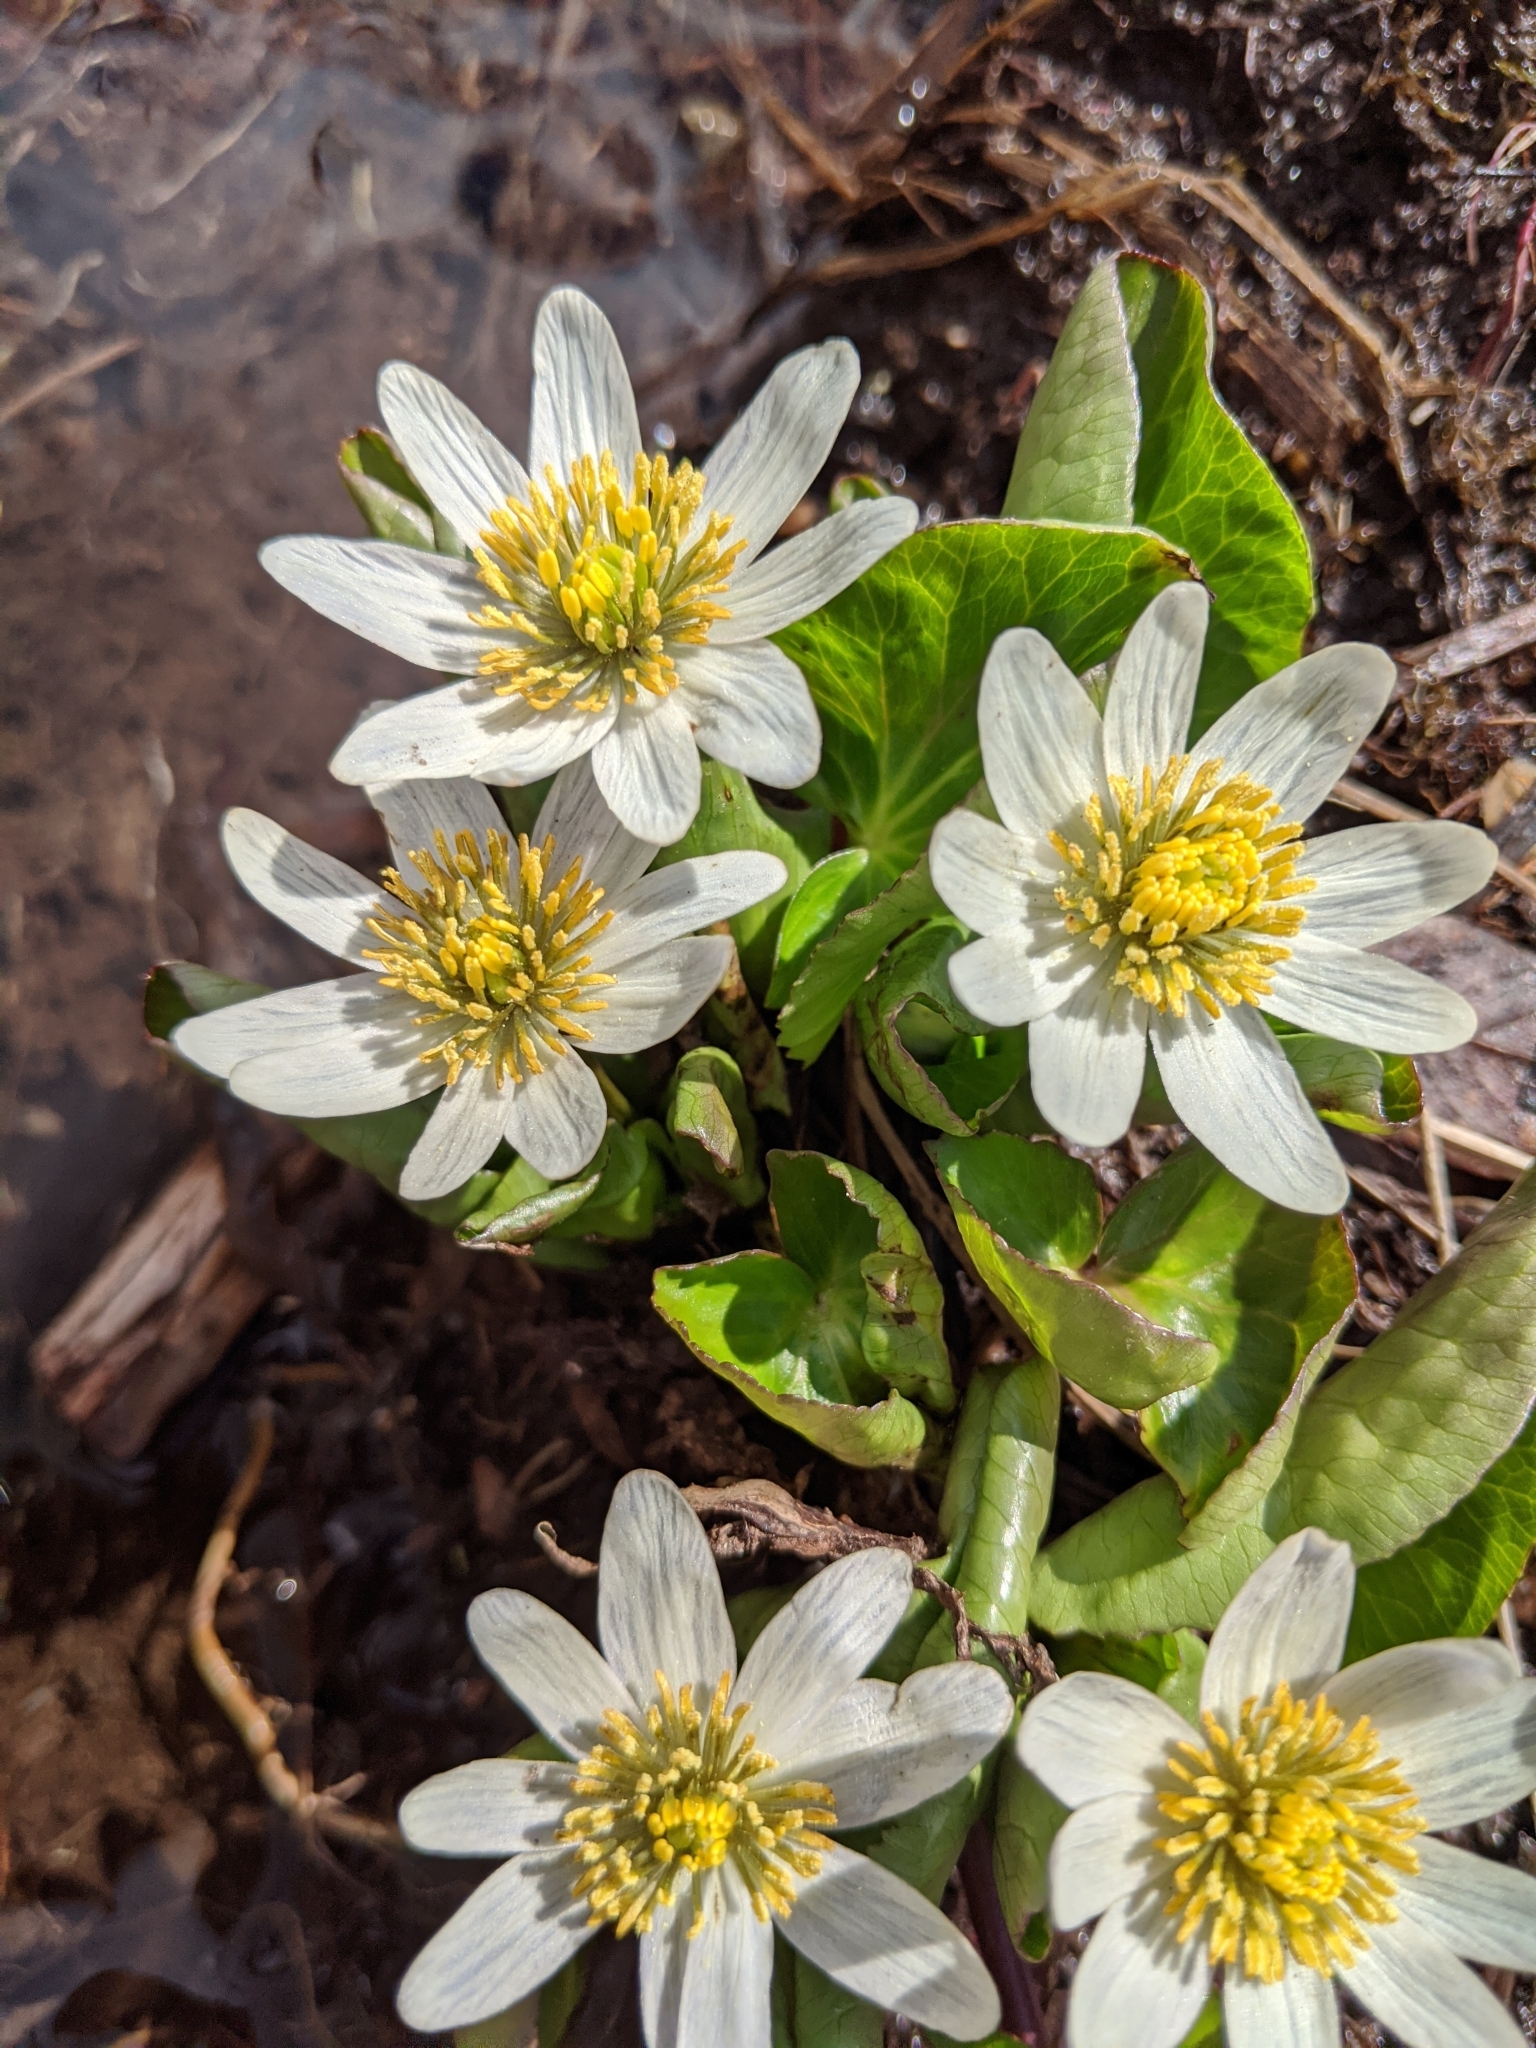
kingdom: Plantae
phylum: Tracheophyta
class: Magnoliopsida
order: Ranunculales
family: Ranunculaceae
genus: Caltha
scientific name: Caltha leptosepala
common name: Elkslip
